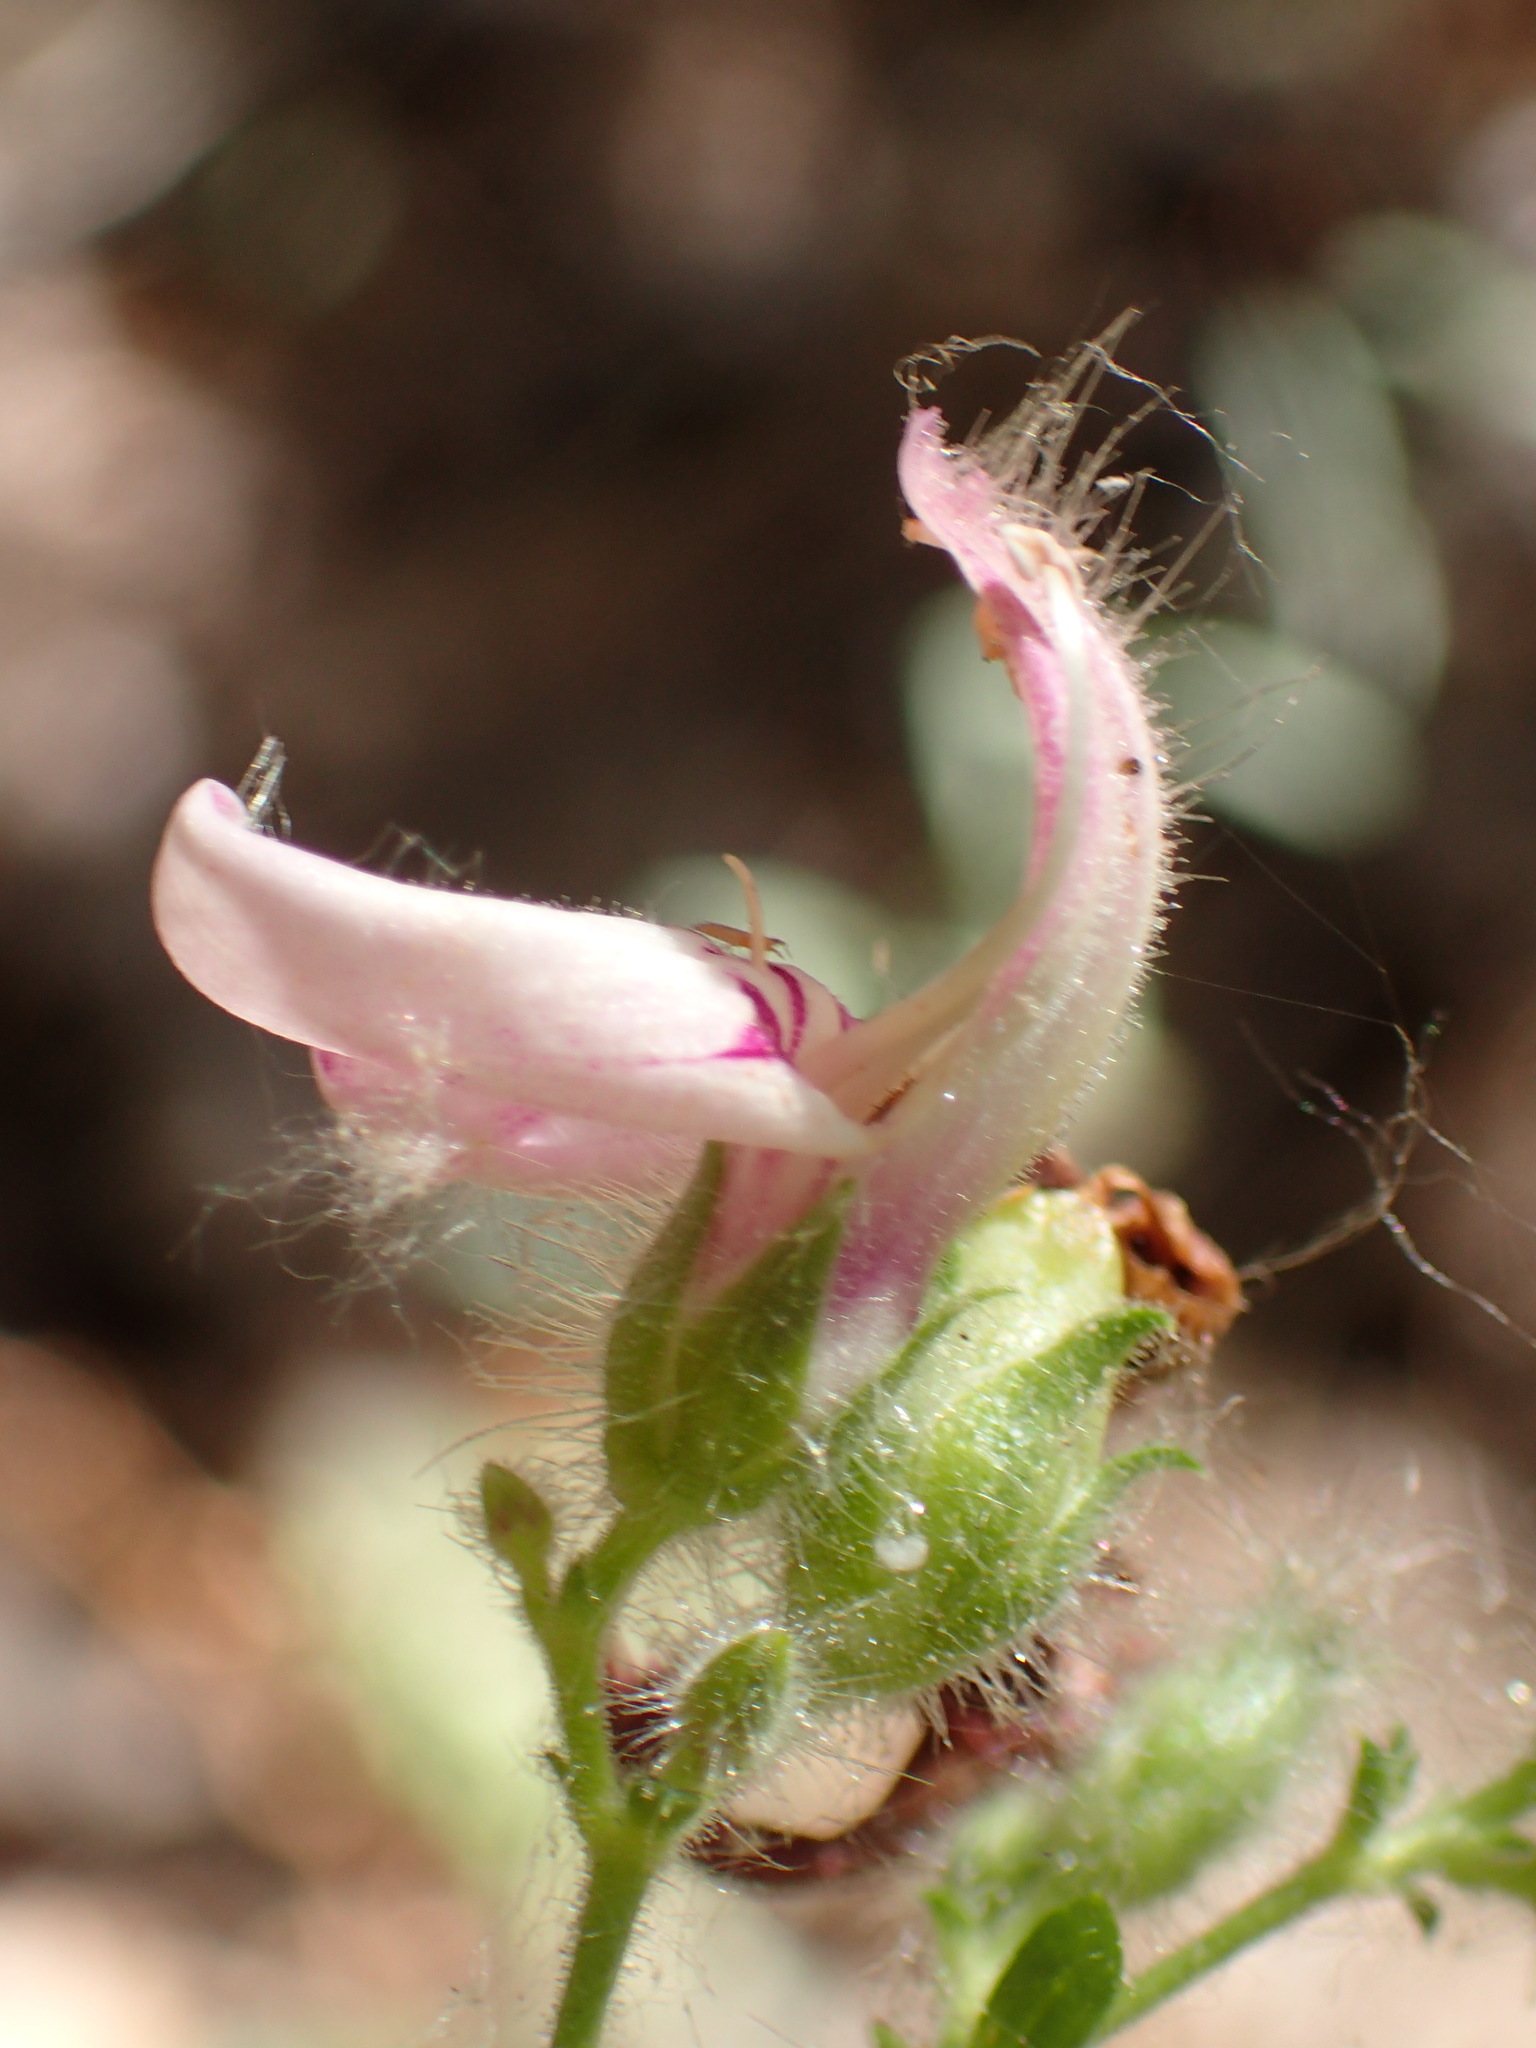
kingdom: Plantae
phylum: Tracheophyta
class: Magnoliopsida
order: Lamiales
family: Plantaginaceae
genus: Keckiella
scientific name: Keckiella breviflora
